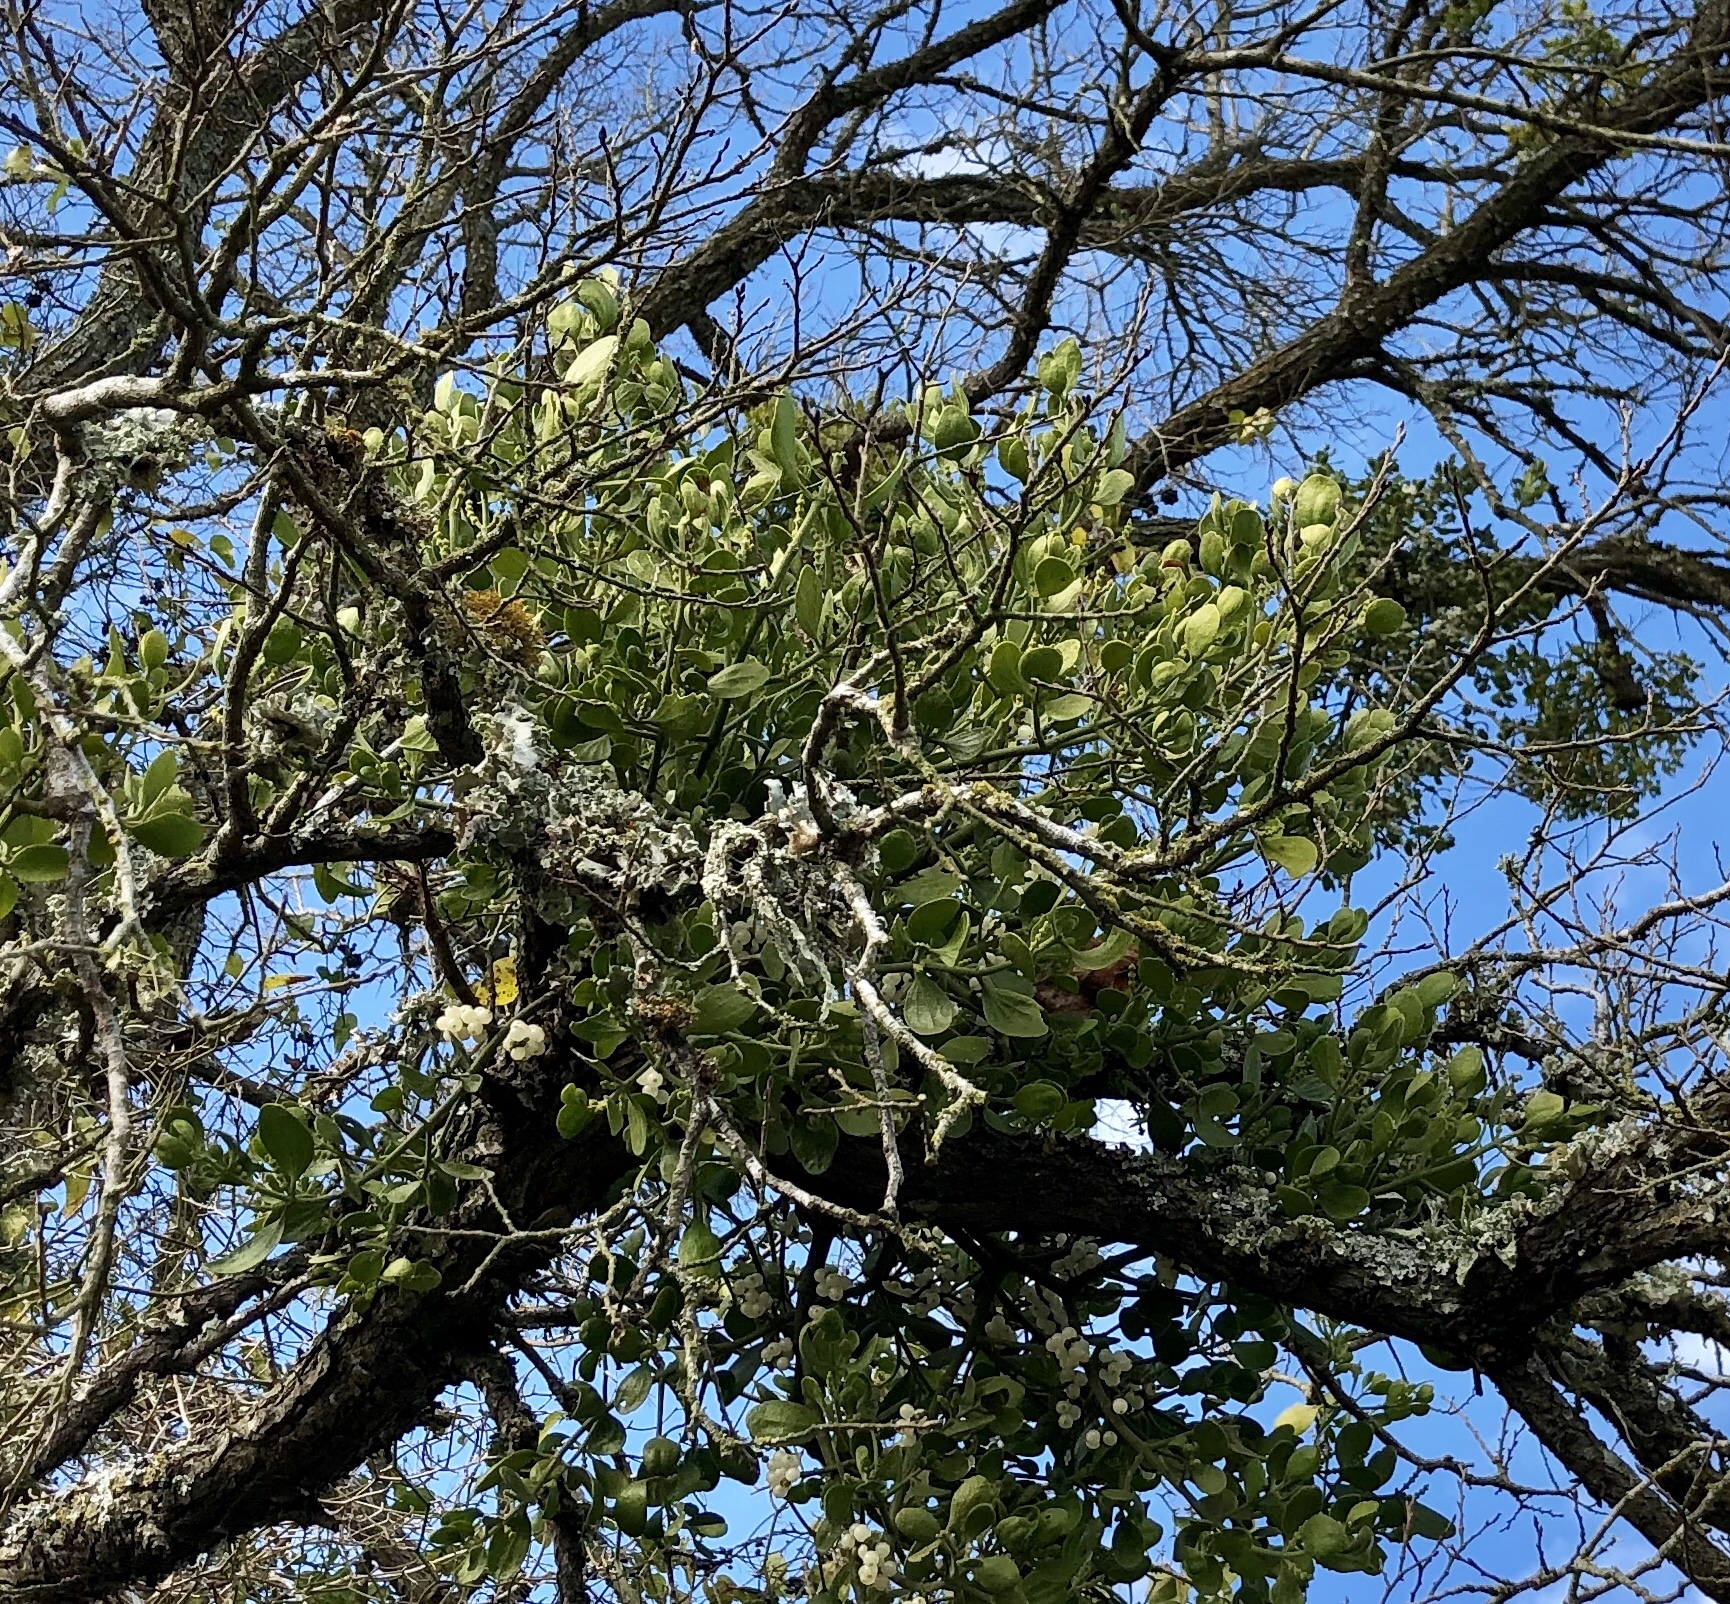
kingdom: Plantae
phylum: Tracheophyta
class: Magnoliopsida
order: Santalales
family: Viscaceae
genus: Phoradendron
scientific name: Phoradendron leucarpum
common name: Pacific mistletoe
